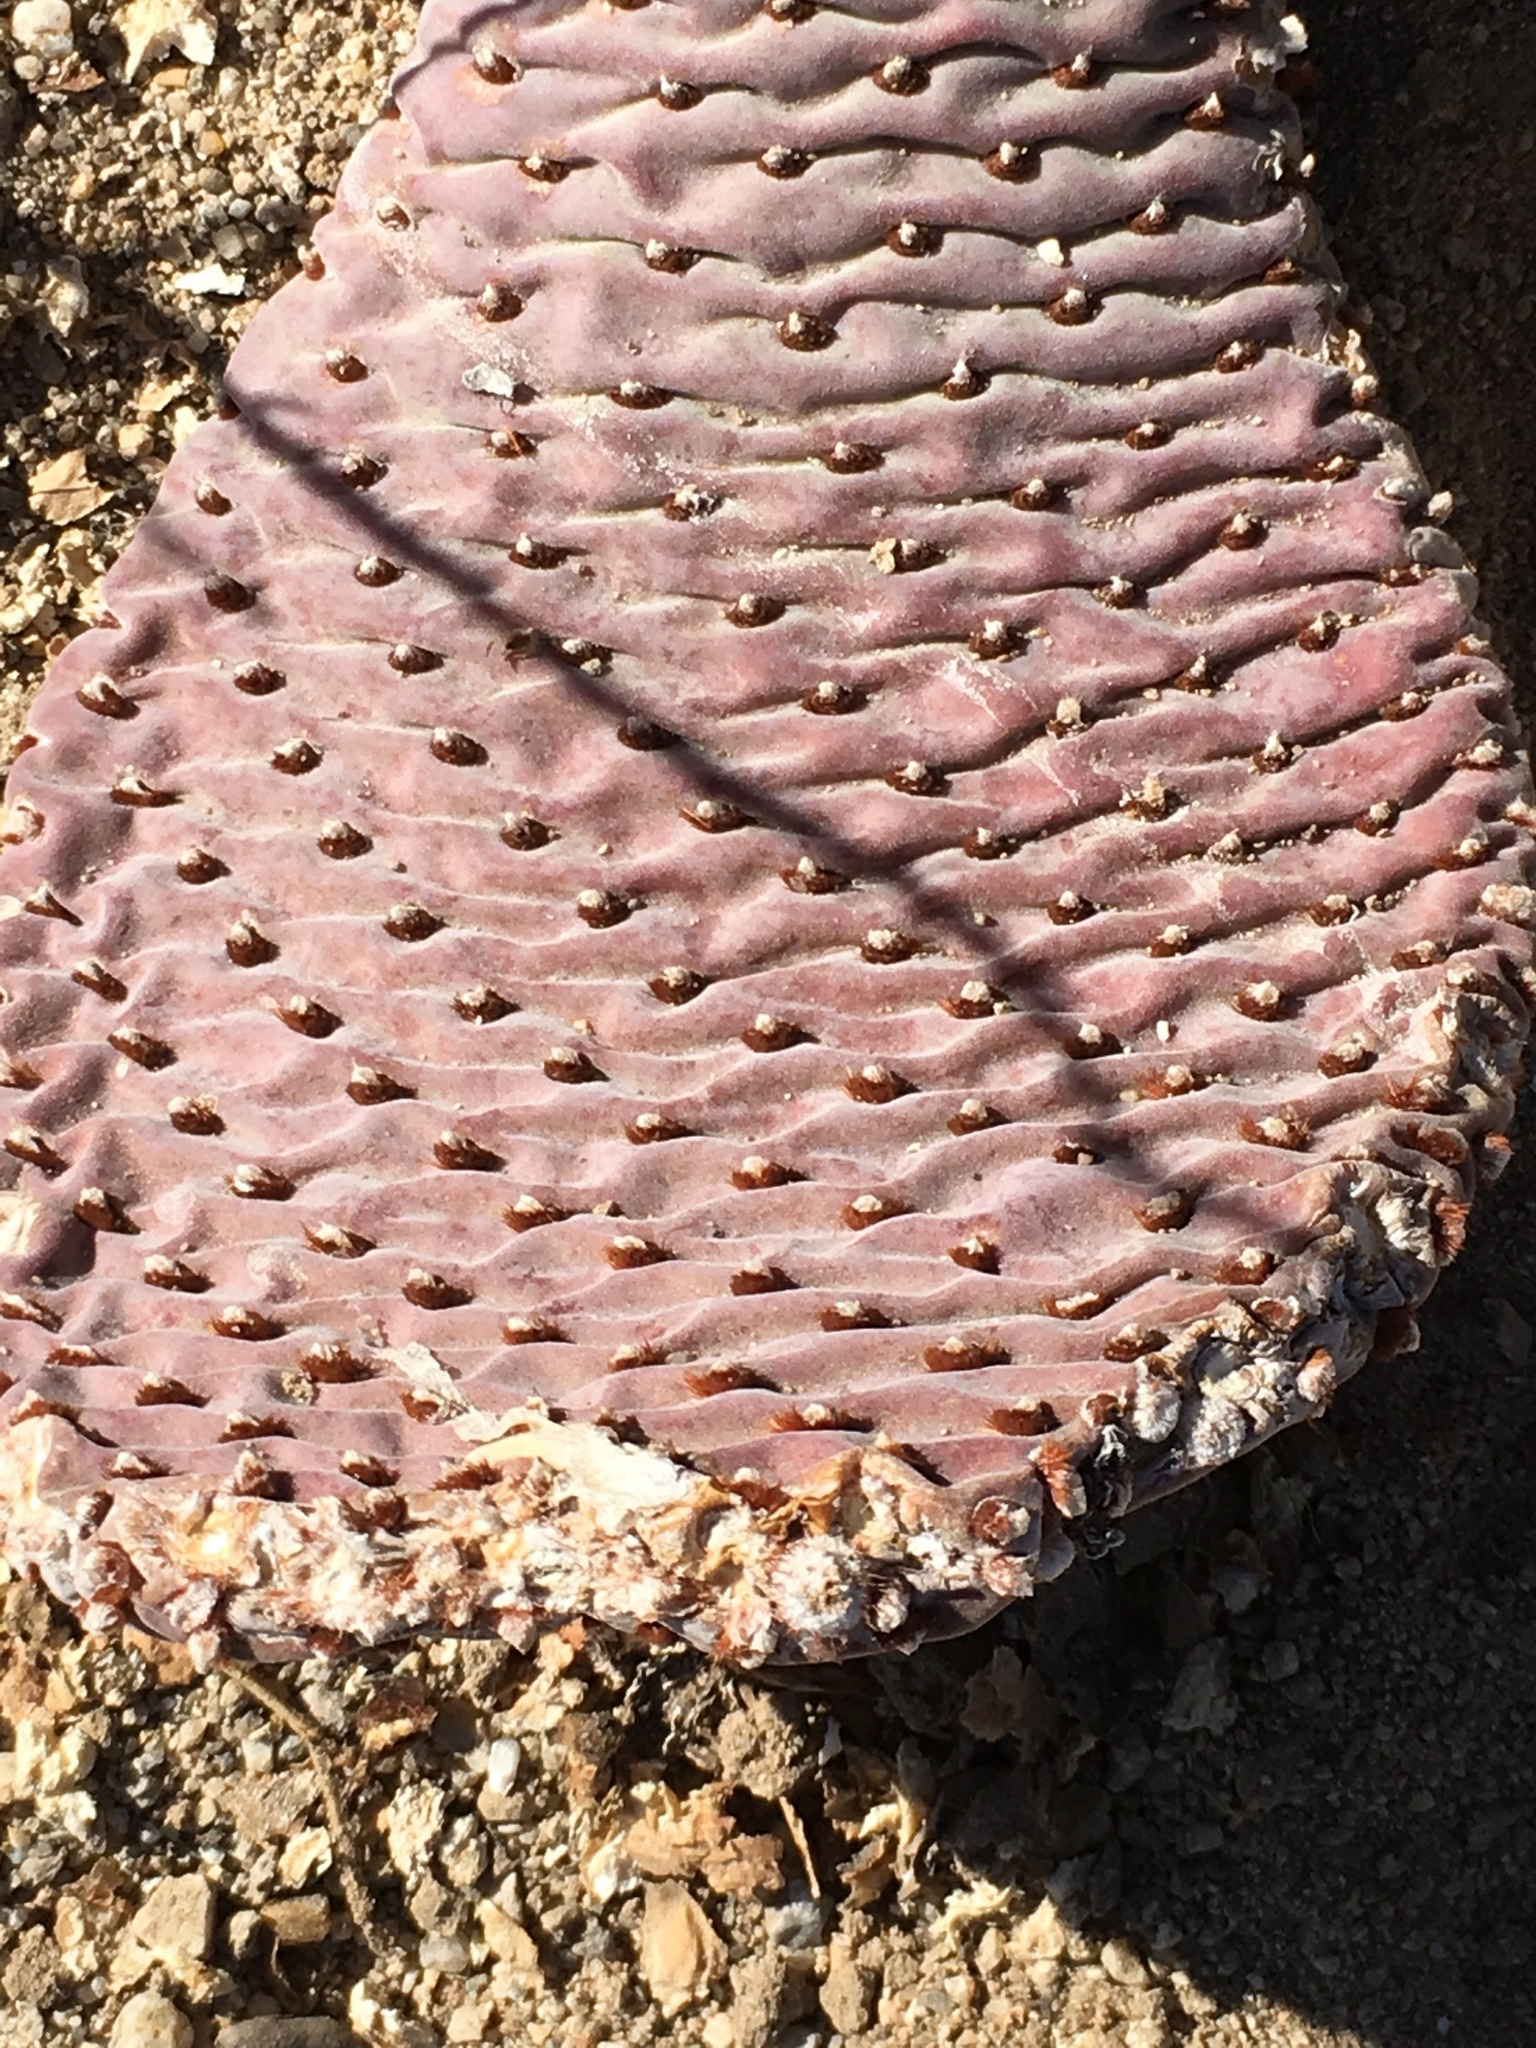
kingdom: Plantae
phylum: Tracheophyta
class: Magnoliopsida
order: Caryophyllales
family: Cactaceae
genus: Opuntia
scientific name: Opuntia basilaris
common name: Beavertail prickly-pear
